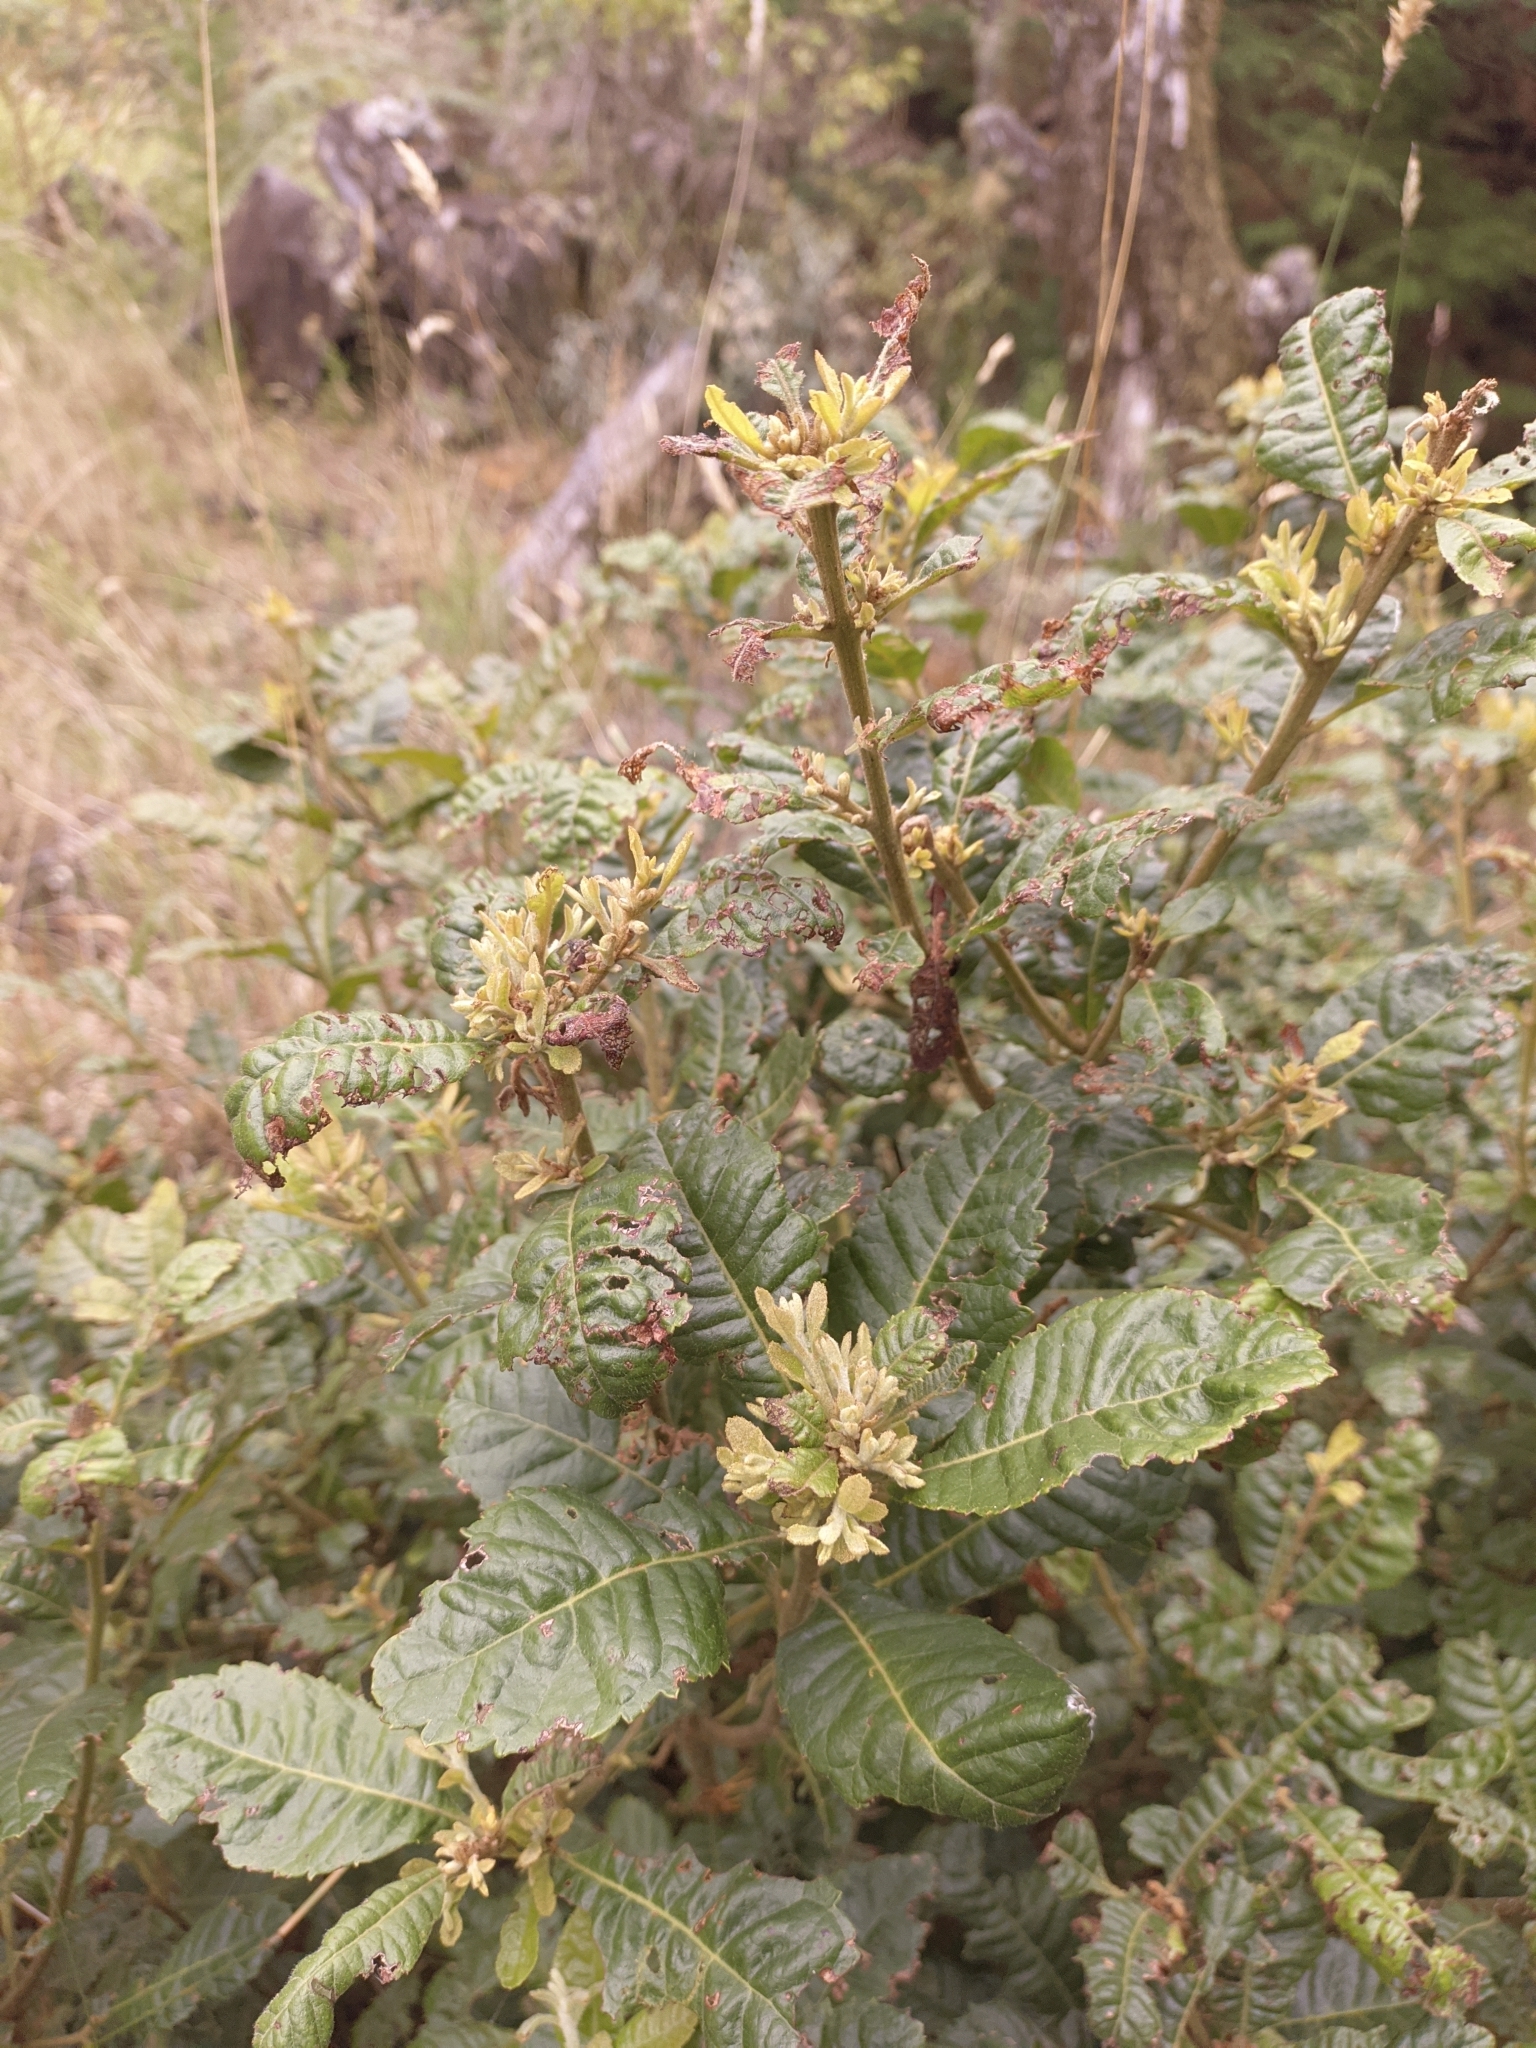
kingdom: Plantae
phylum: Tracheophyta
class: Magnoliopsida
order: Fagales
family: Myricaceae
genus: Morella
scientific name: Morella pubescens
